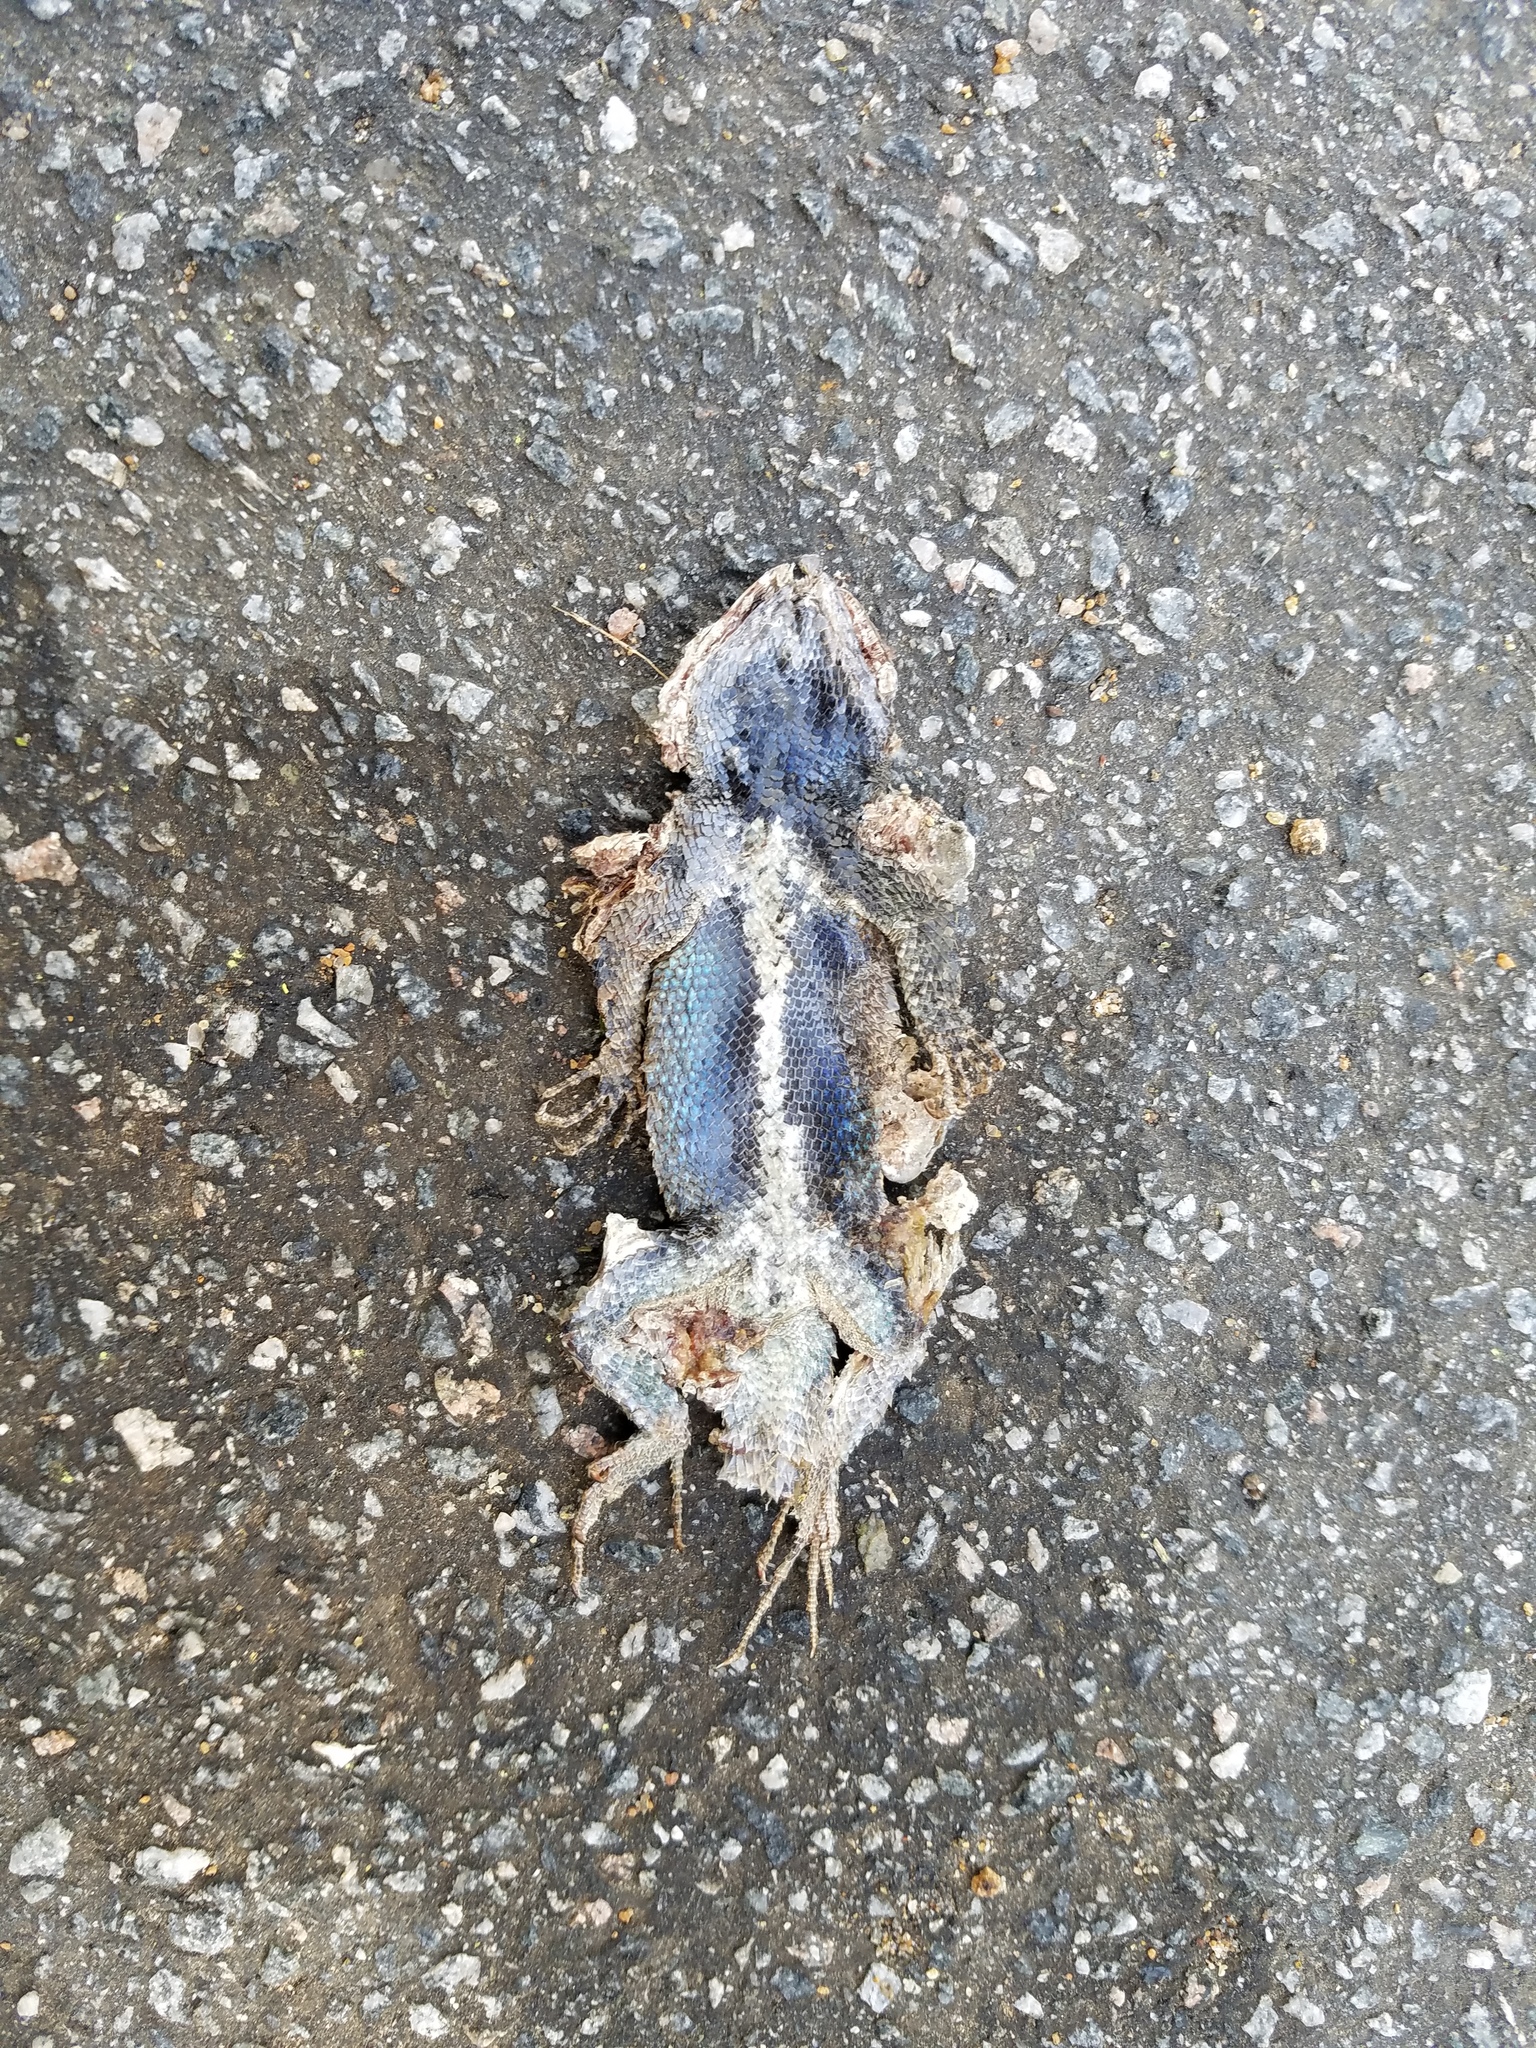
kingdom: Animalia
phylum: Chordata
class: Squamata
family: Phrynosomatidae
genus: Sceloporus
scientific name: Sceloporus undulatus
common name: Eastern fence lizard
